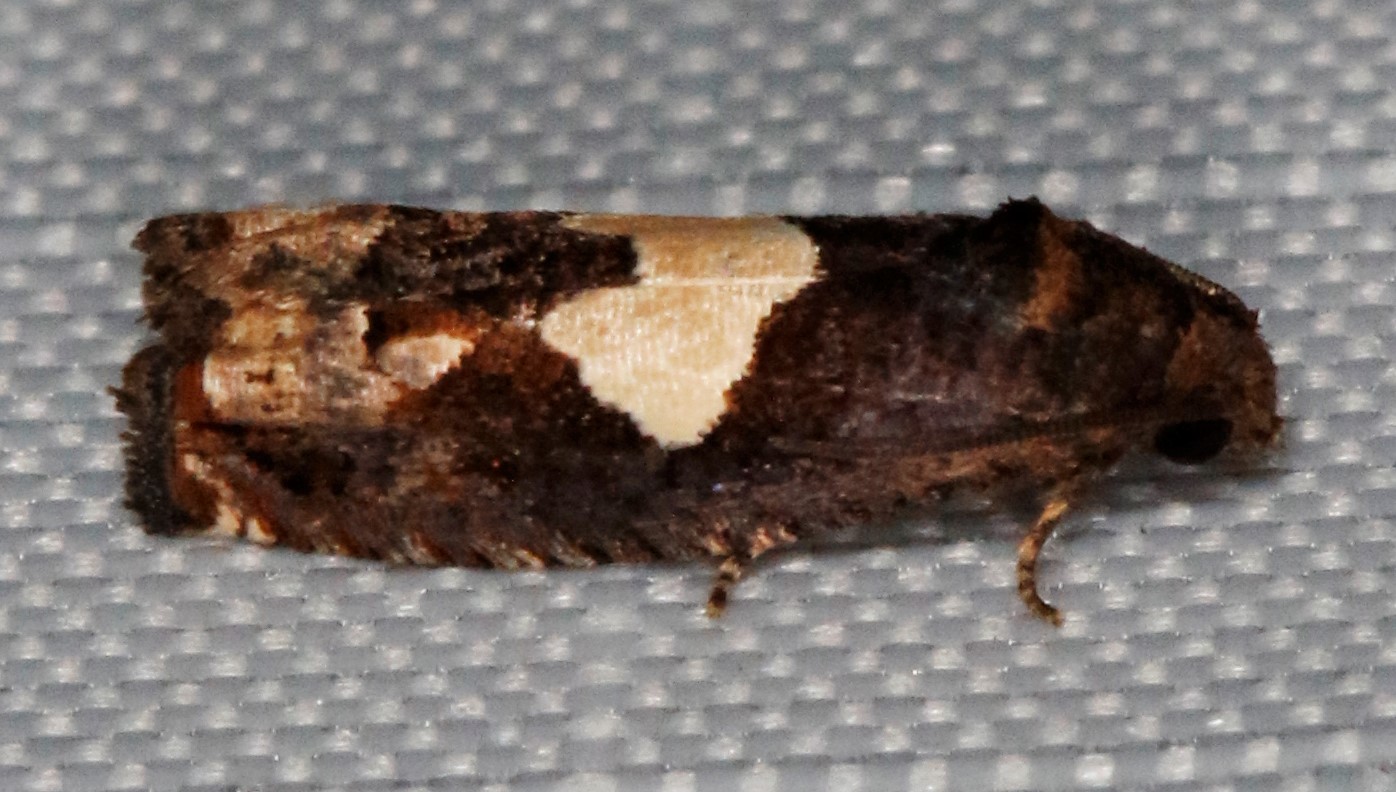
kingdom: Animalia
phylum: Arthropoda
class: Insecta
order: Lepidoptera
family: Tortricidae
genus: Epiblema
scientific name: Epiblema otiosana
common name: Bidens borer moth
